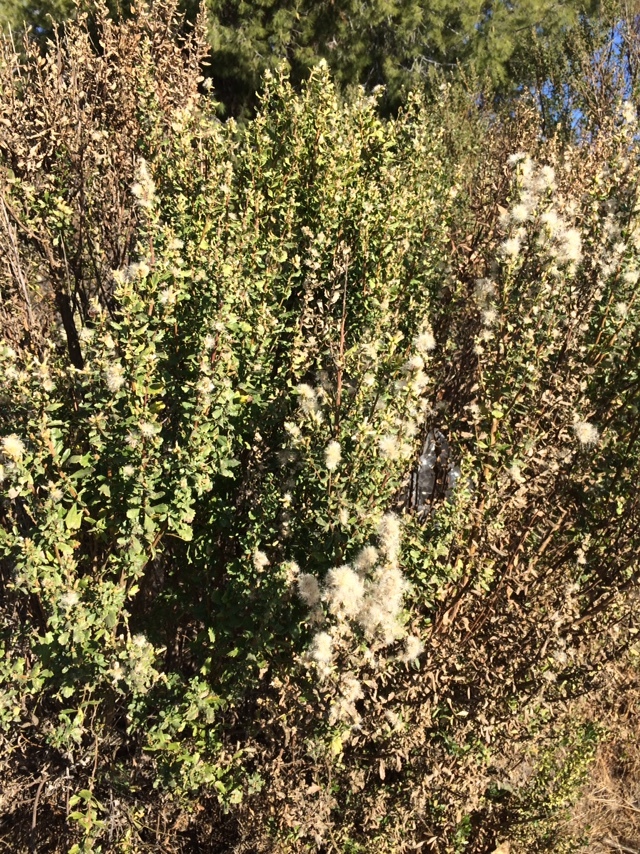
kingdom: Plantae
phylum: Tracheophyta
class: Magnoliopsida
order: Asterales
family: Asteraceae
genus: Baccharis
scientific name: Baccharis pilularis
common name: Coyotebrush
